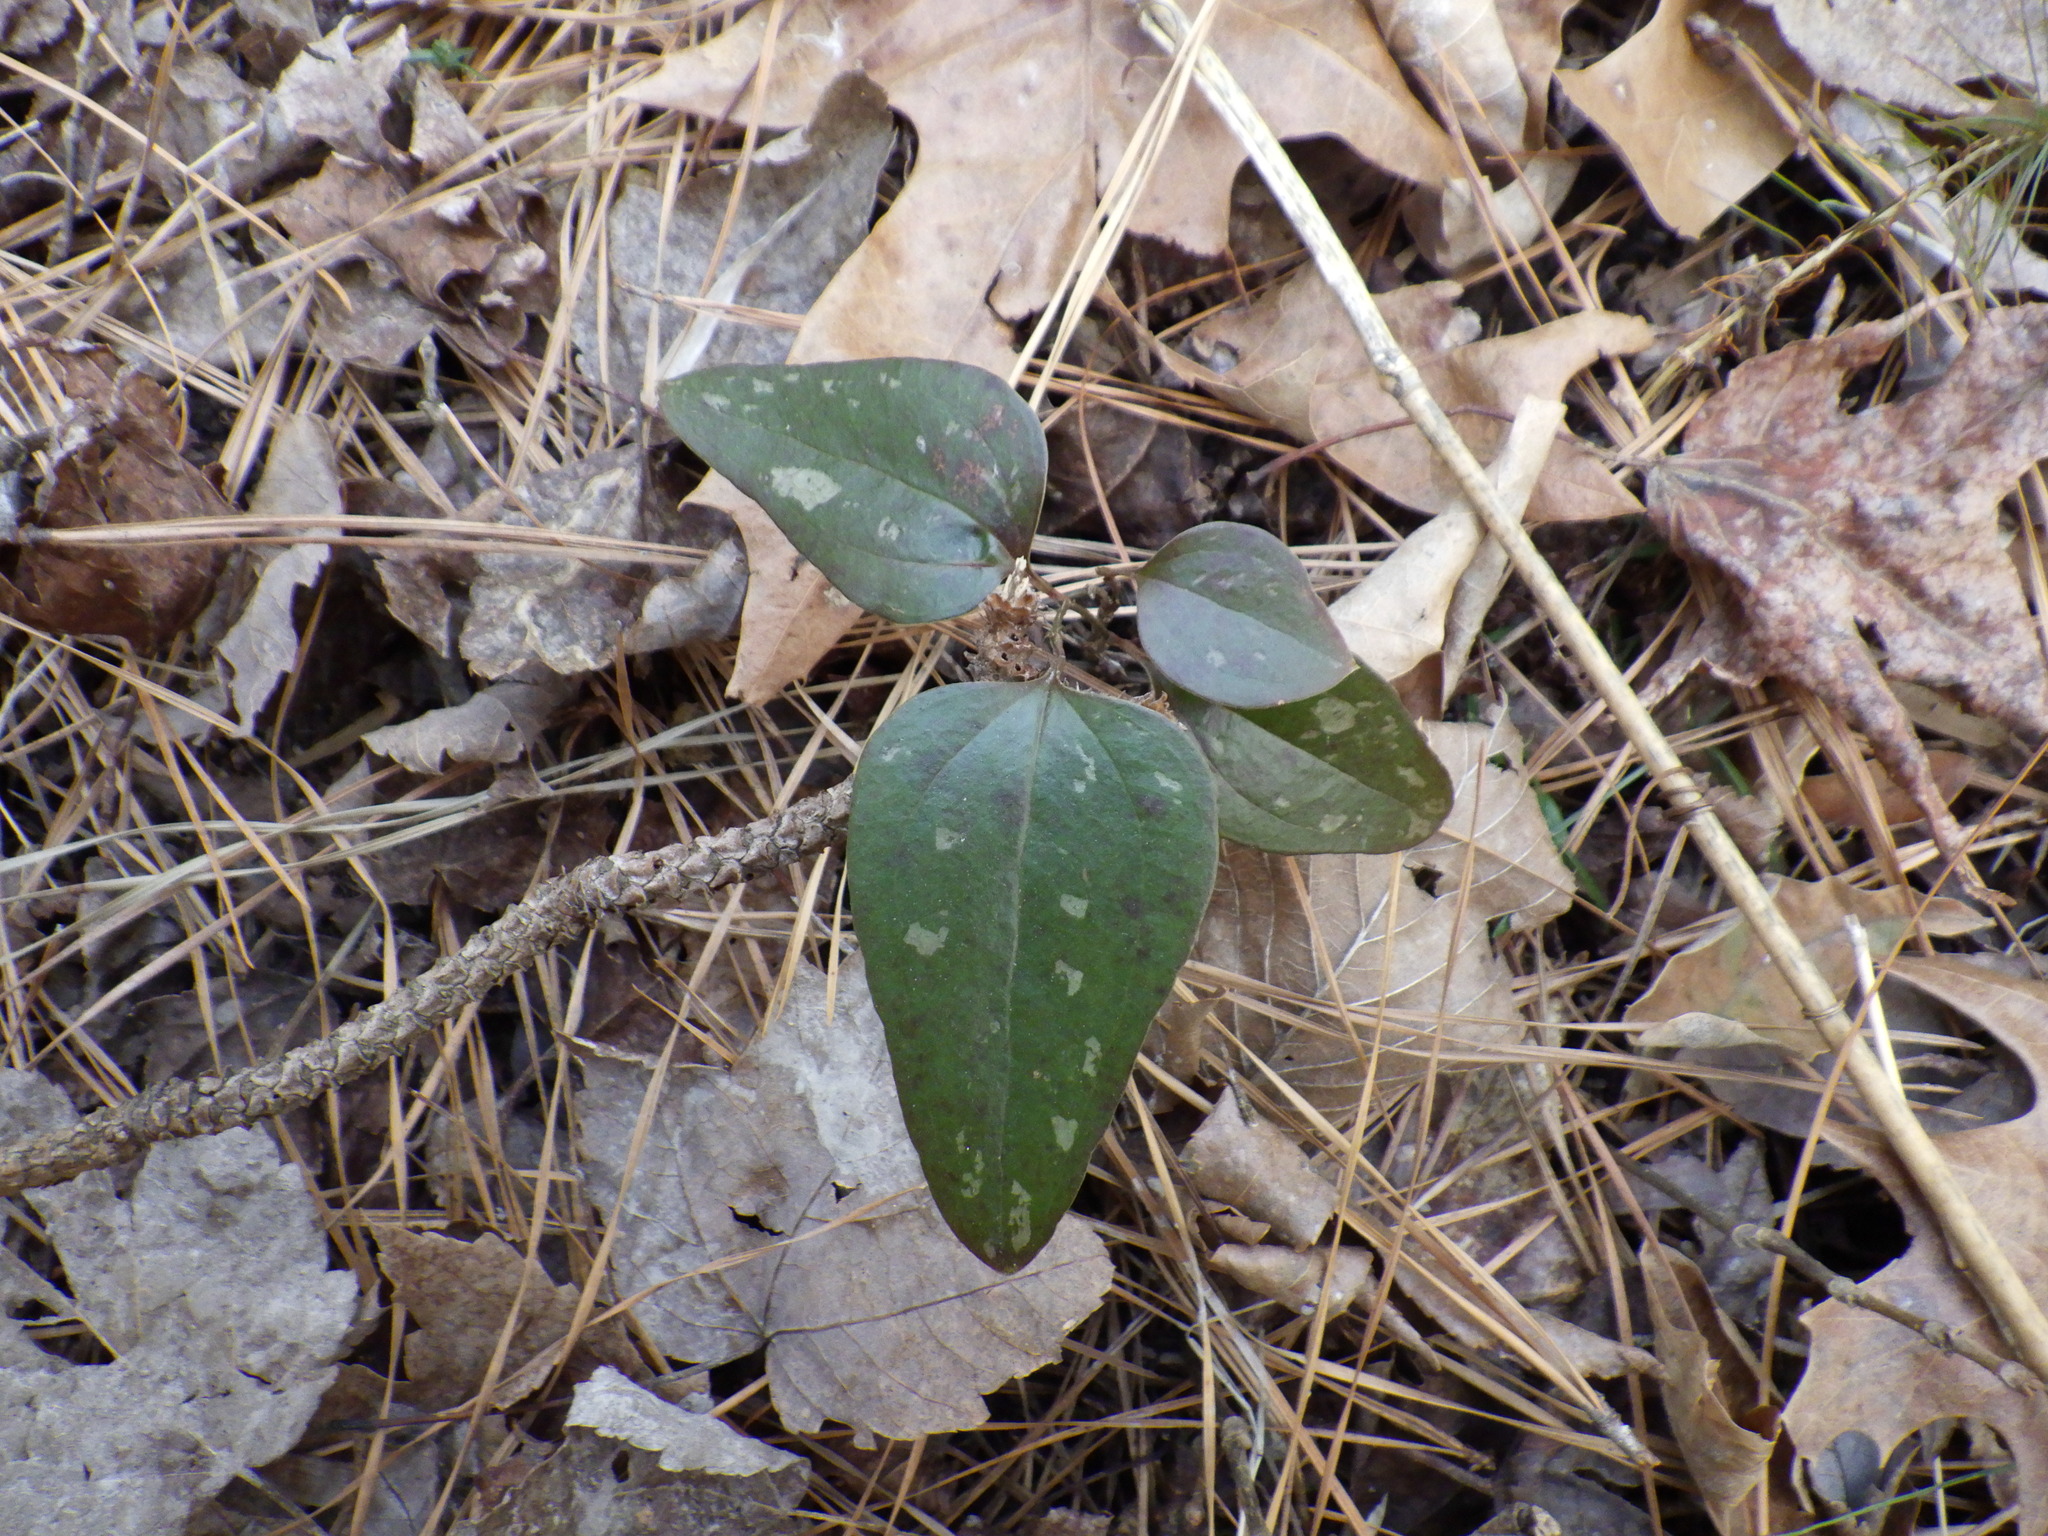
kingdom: Plantae
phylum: Tracheophyta
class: Liliopsida
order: Liliales
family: Smilacaceae
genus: Smilax
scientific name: Smilax glauca
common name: Cat greenbrier
